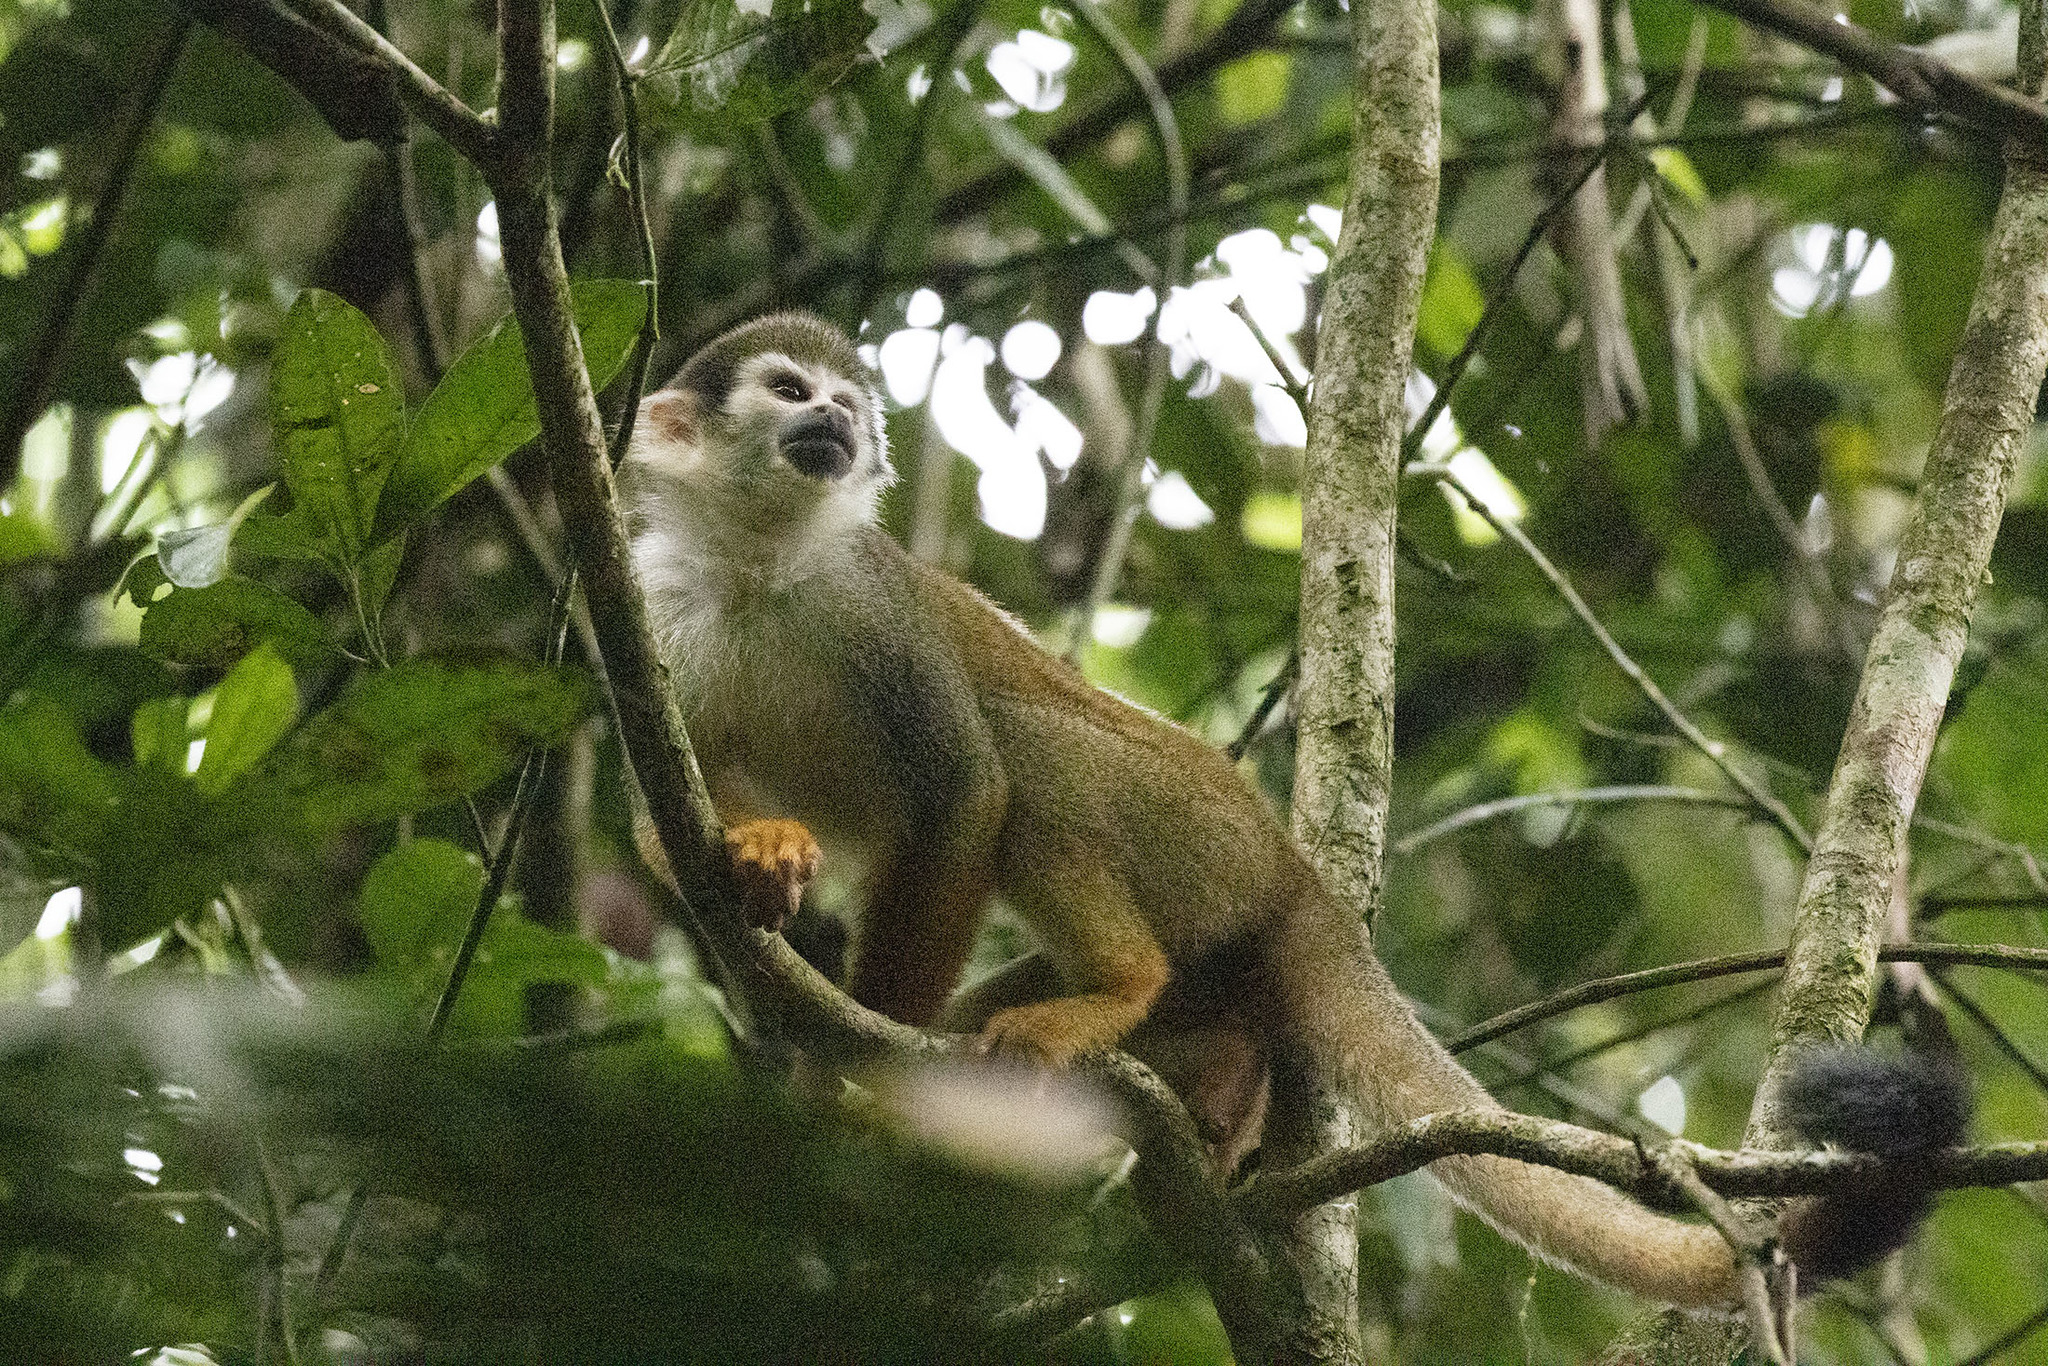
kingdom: Animalia
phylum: Chordata
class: Mammalia
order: Primates
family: Cebidae
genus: Saimiri
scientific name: Saimiri cassiquiarensis
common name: Humboldt’s squirrel monkey
